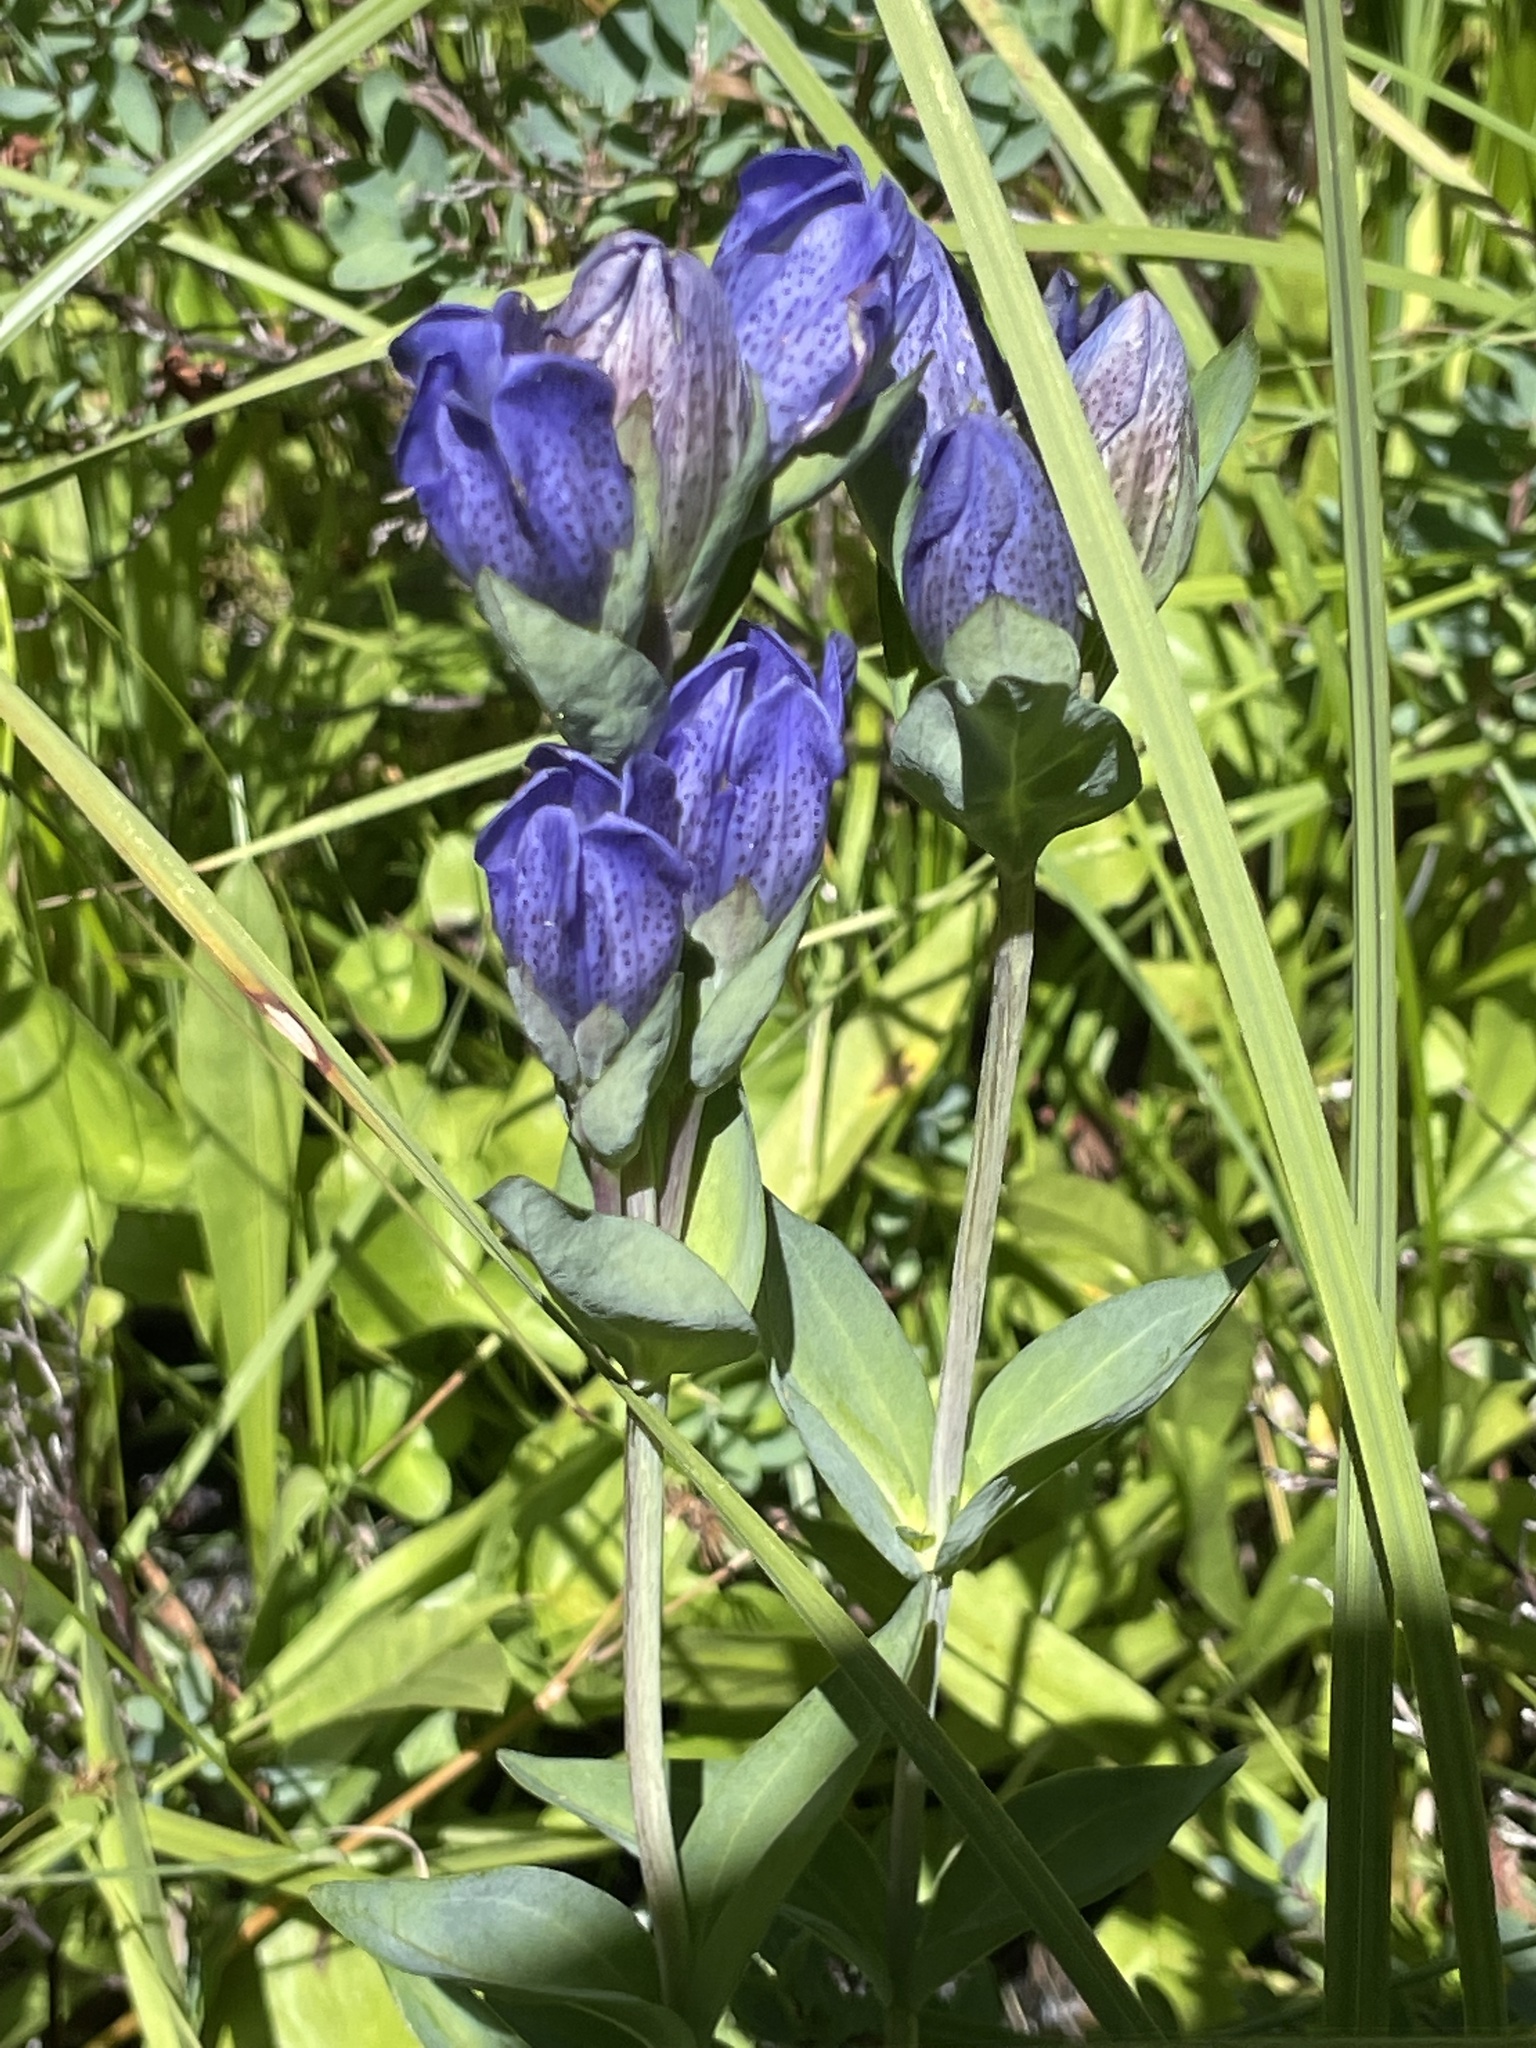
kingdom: Plantae
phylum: Tracheophyta
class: Magnoliopsida
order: Gentianales
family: Gentianaceae
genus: Gentiana
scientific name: Gentiana sceptrum
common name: Pacific gentian
